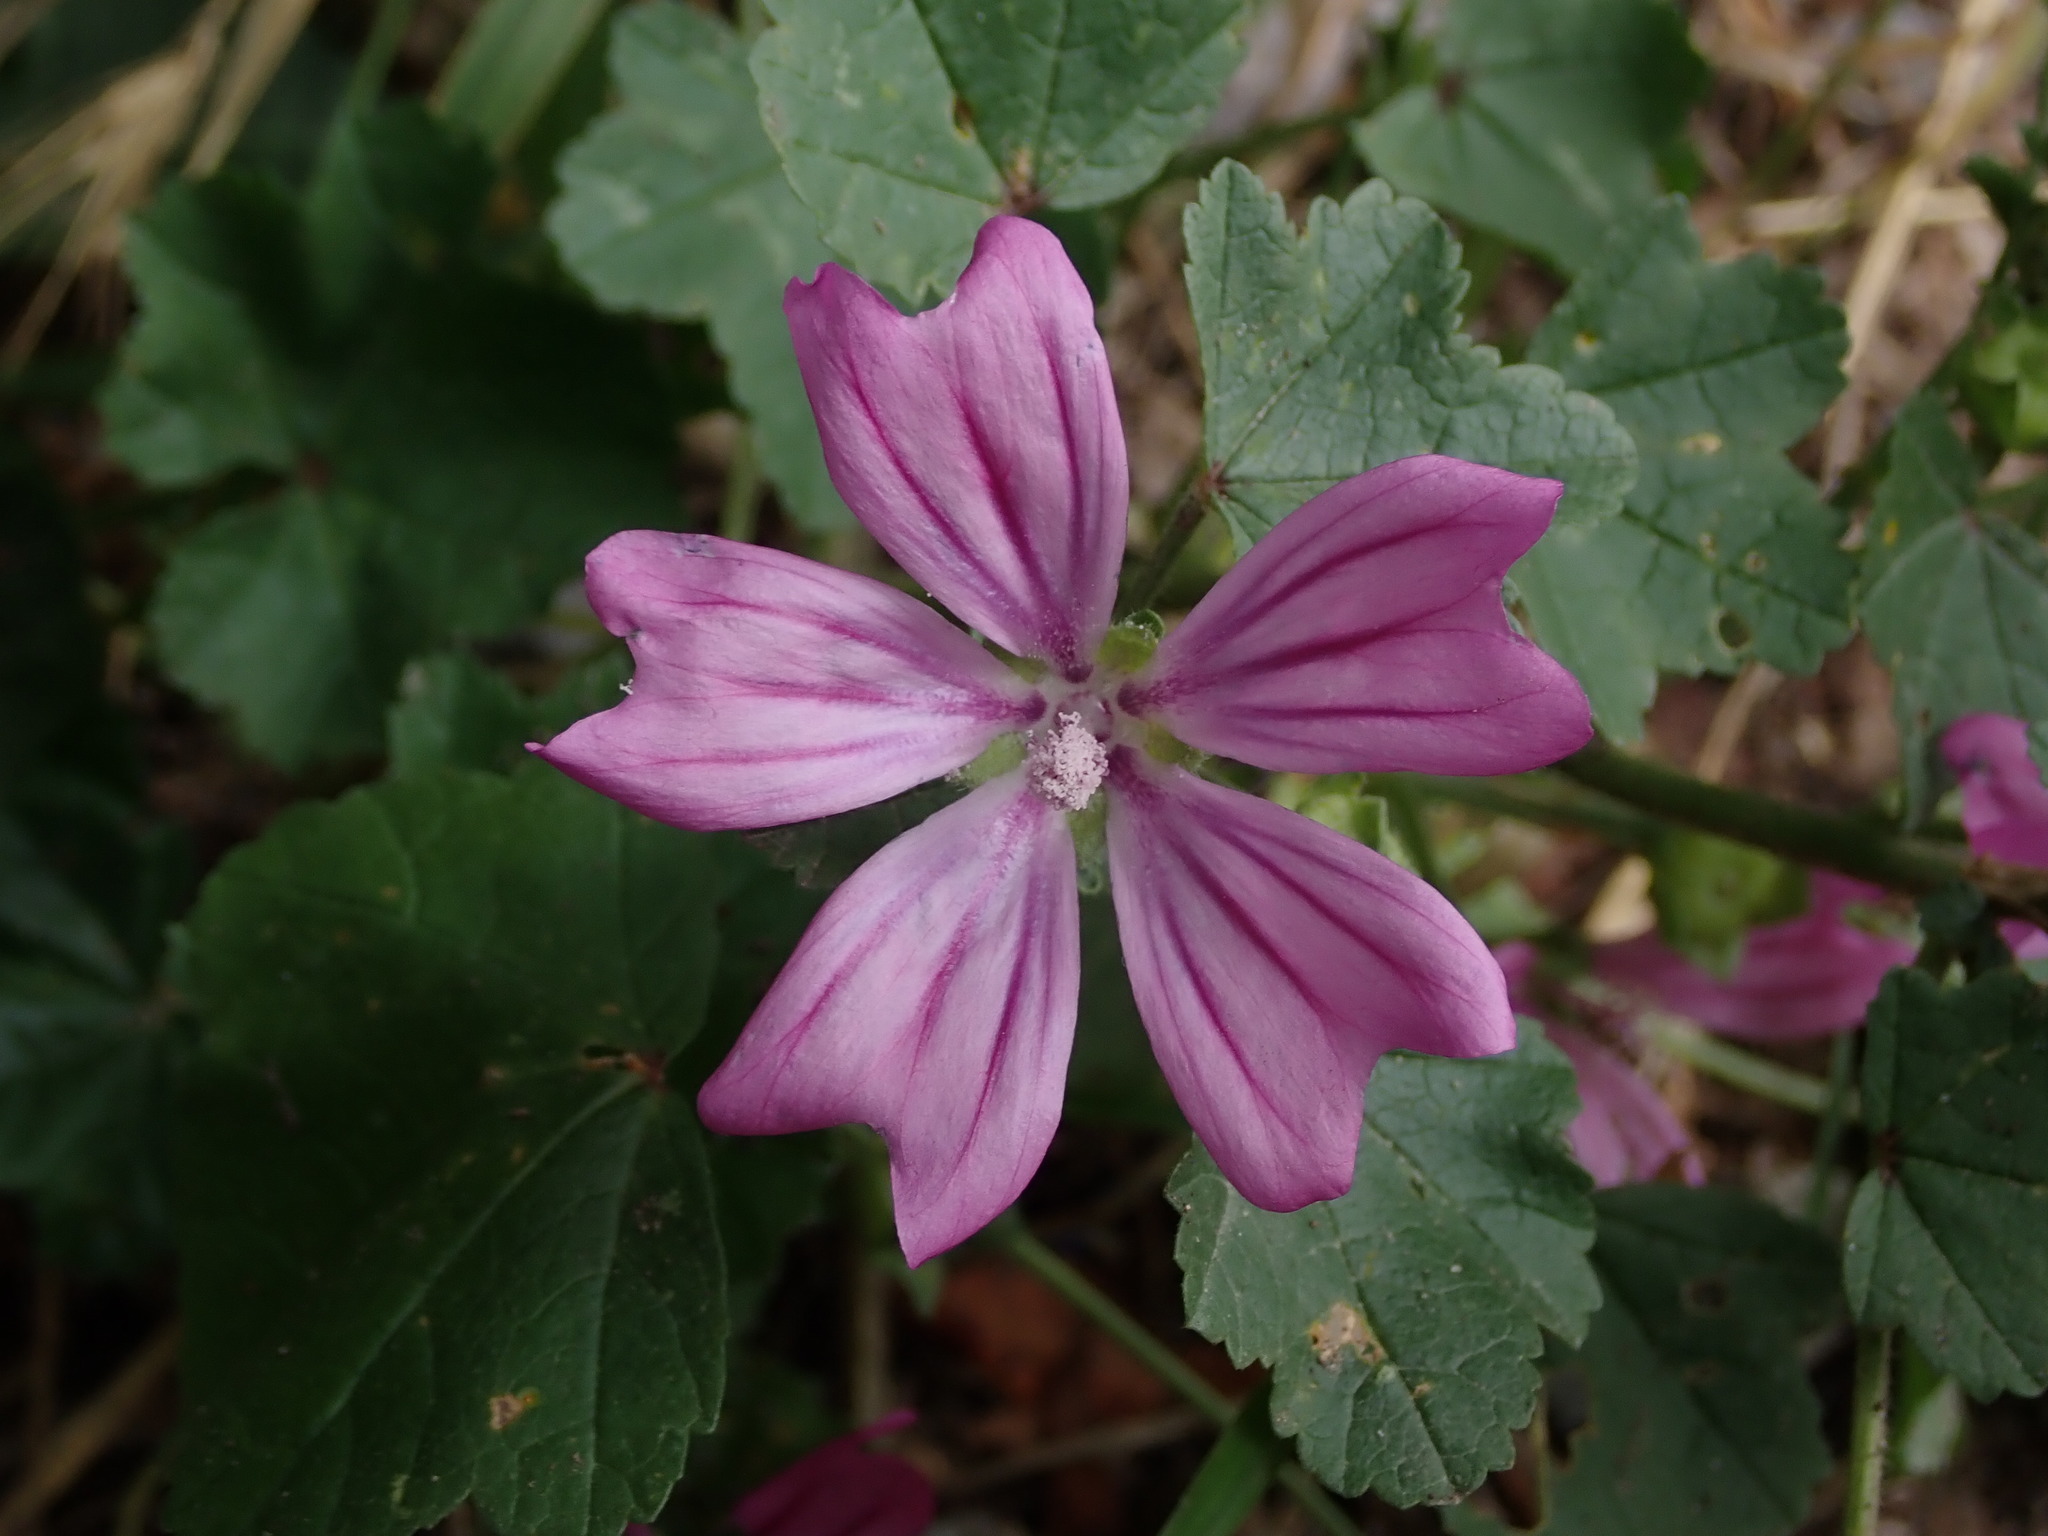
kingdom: Plantae
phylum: Tracheophyta
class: Magnoliopsida
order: Malvales
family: Malvaceae
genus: Malva
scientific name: Malva sylvestris
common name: Common mallow
